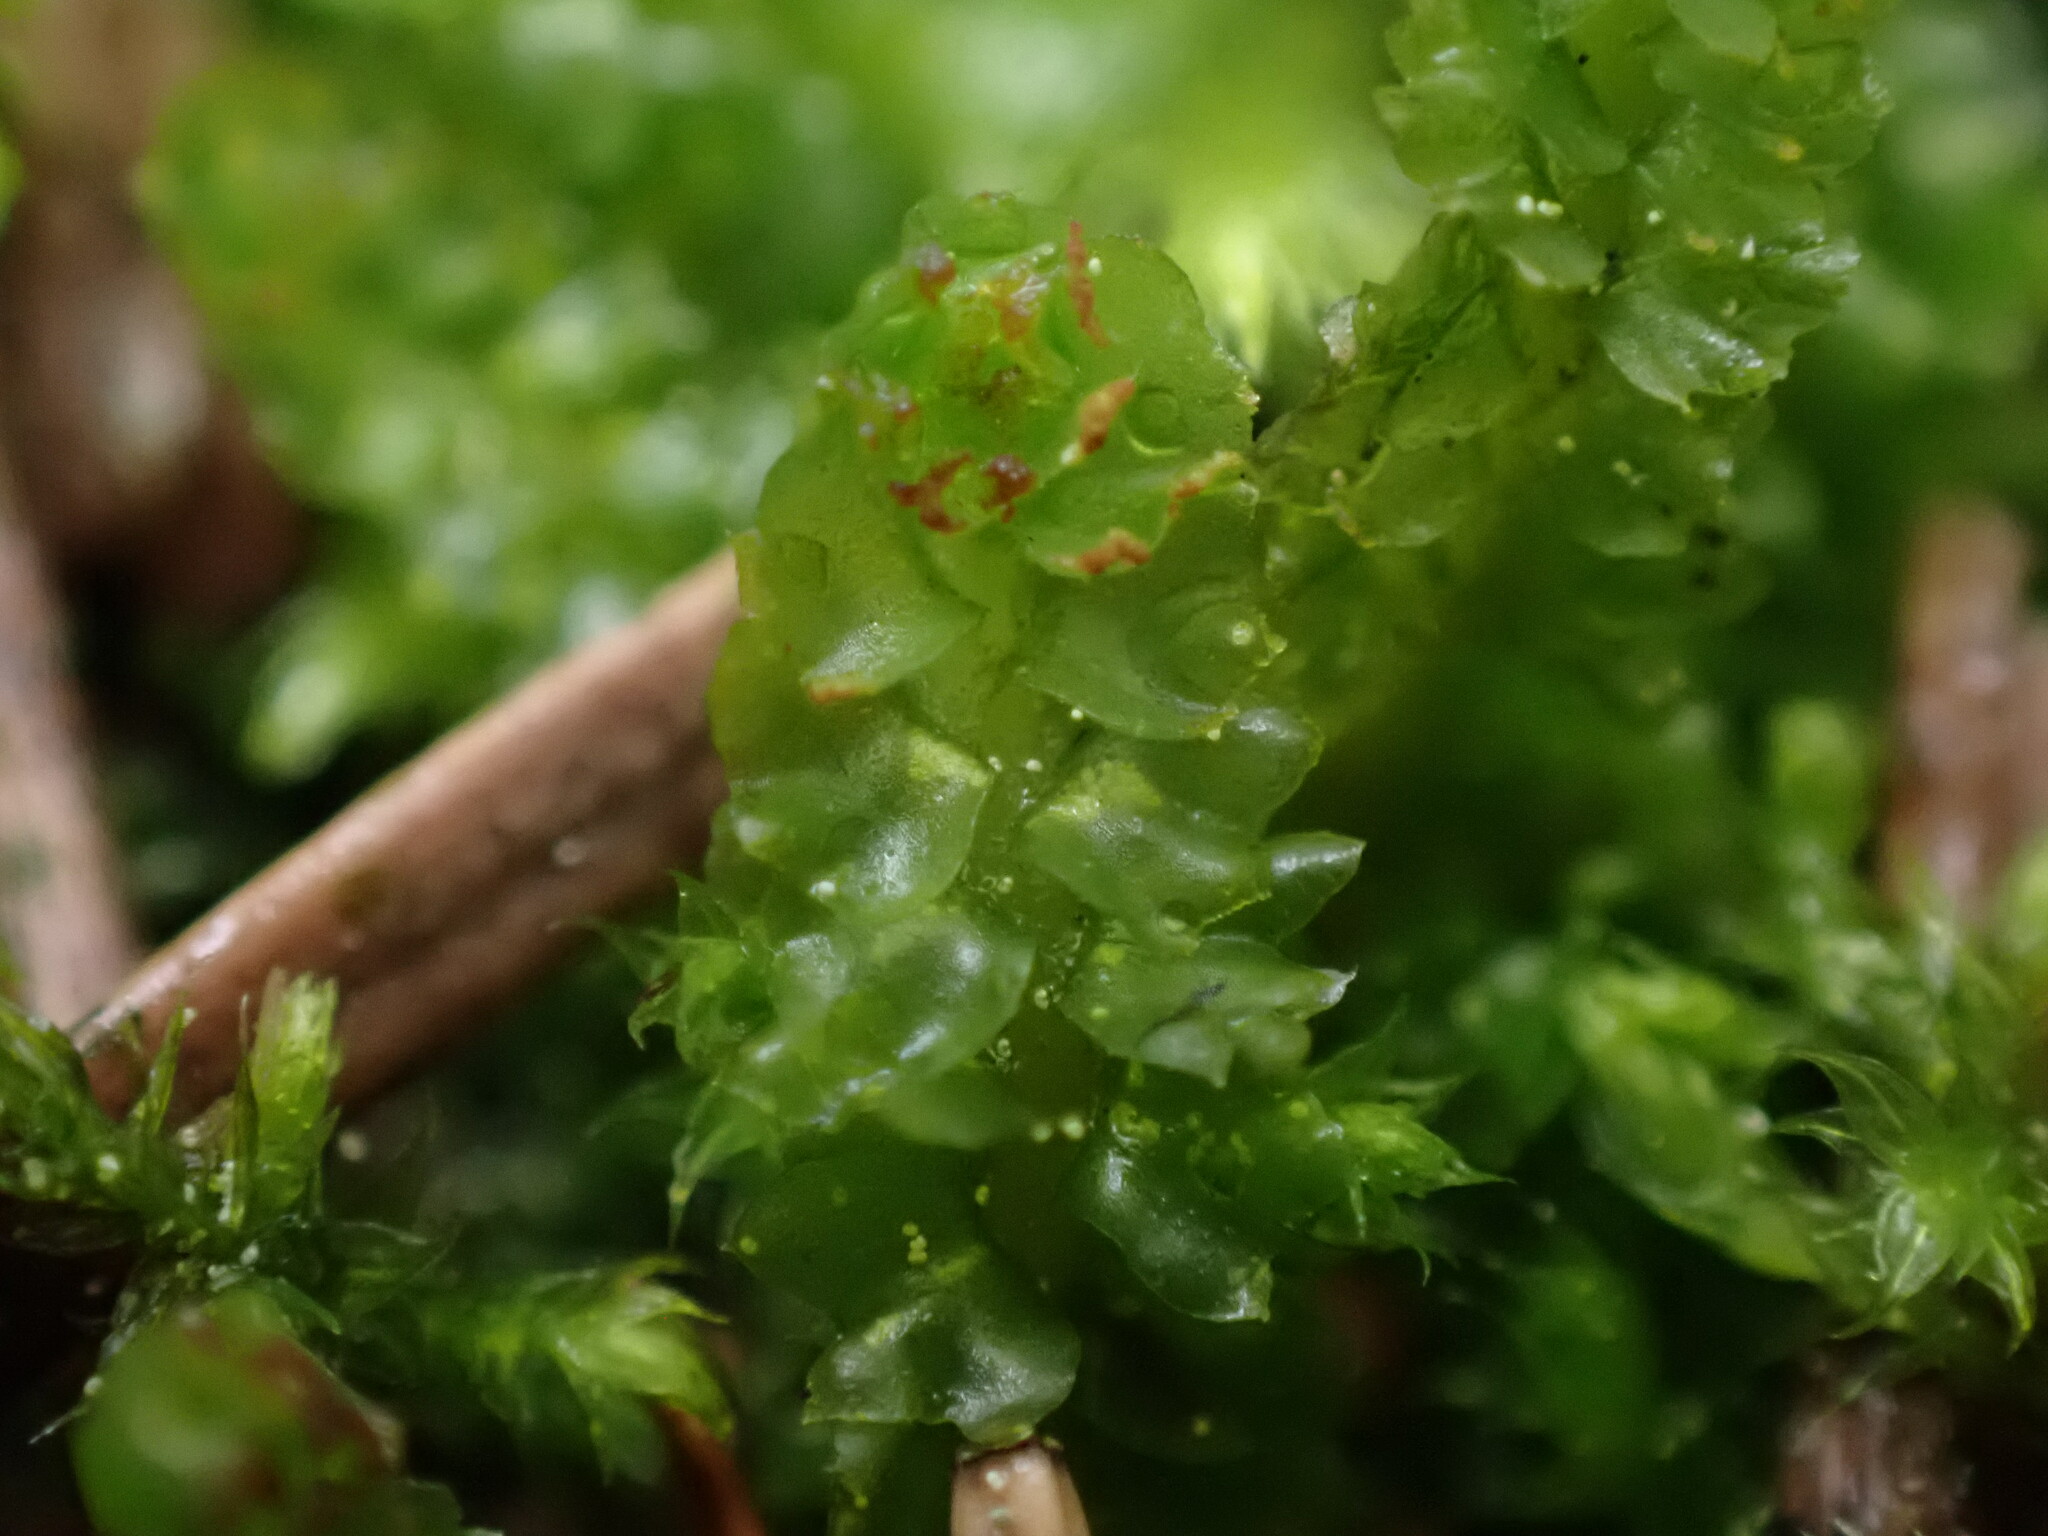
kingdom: Plantae
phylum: Marchantiophyta
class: Jungermanniopsida
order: Jungermanniales
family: Anastrophyllaceae
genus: Barbilophozia
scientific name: Barbilophozia hatcheri
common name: Hatcher s pawwort
